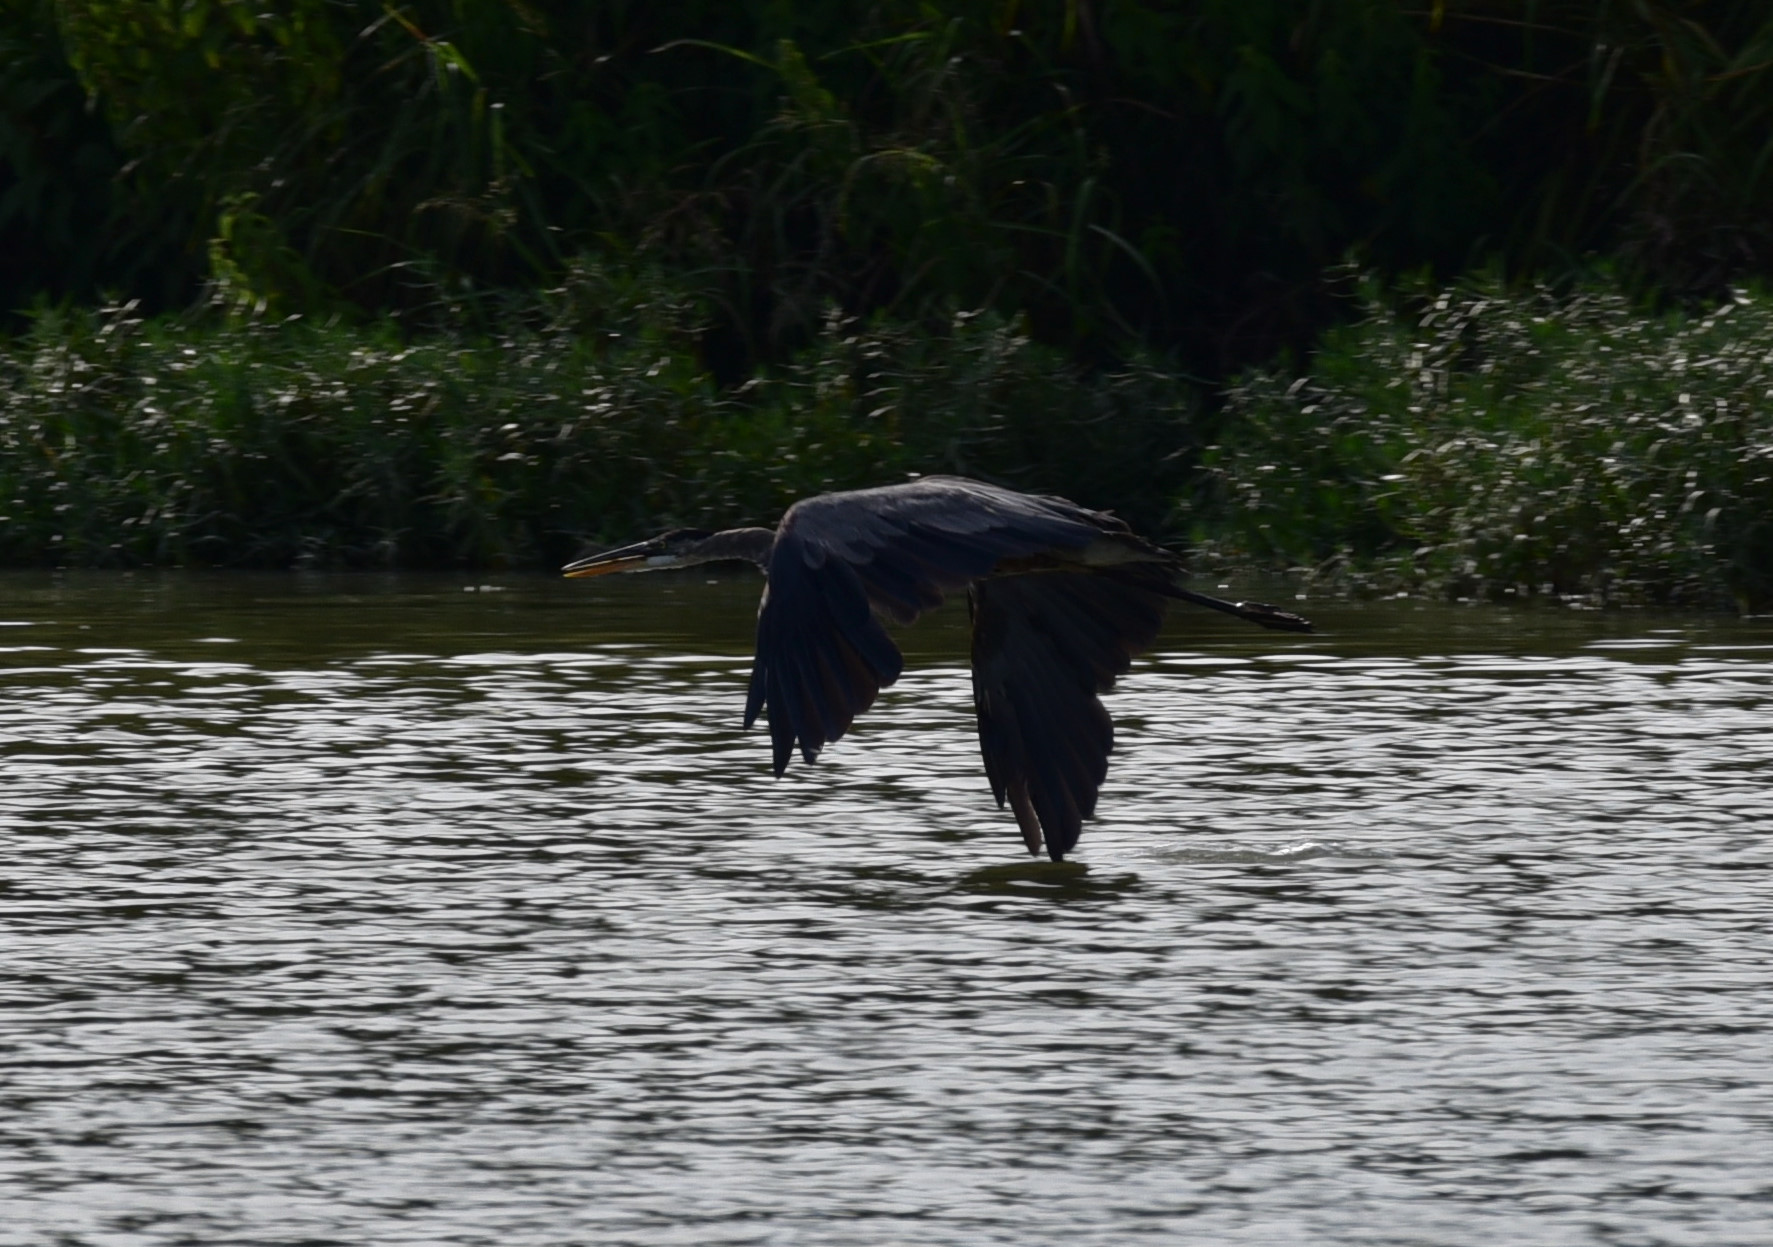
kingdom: Animalia
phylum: Chordata
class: Aves
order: Pelecaniformes
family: Ardeidae
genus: Ardea
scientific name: Ardea herodias
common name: Great blue heron
